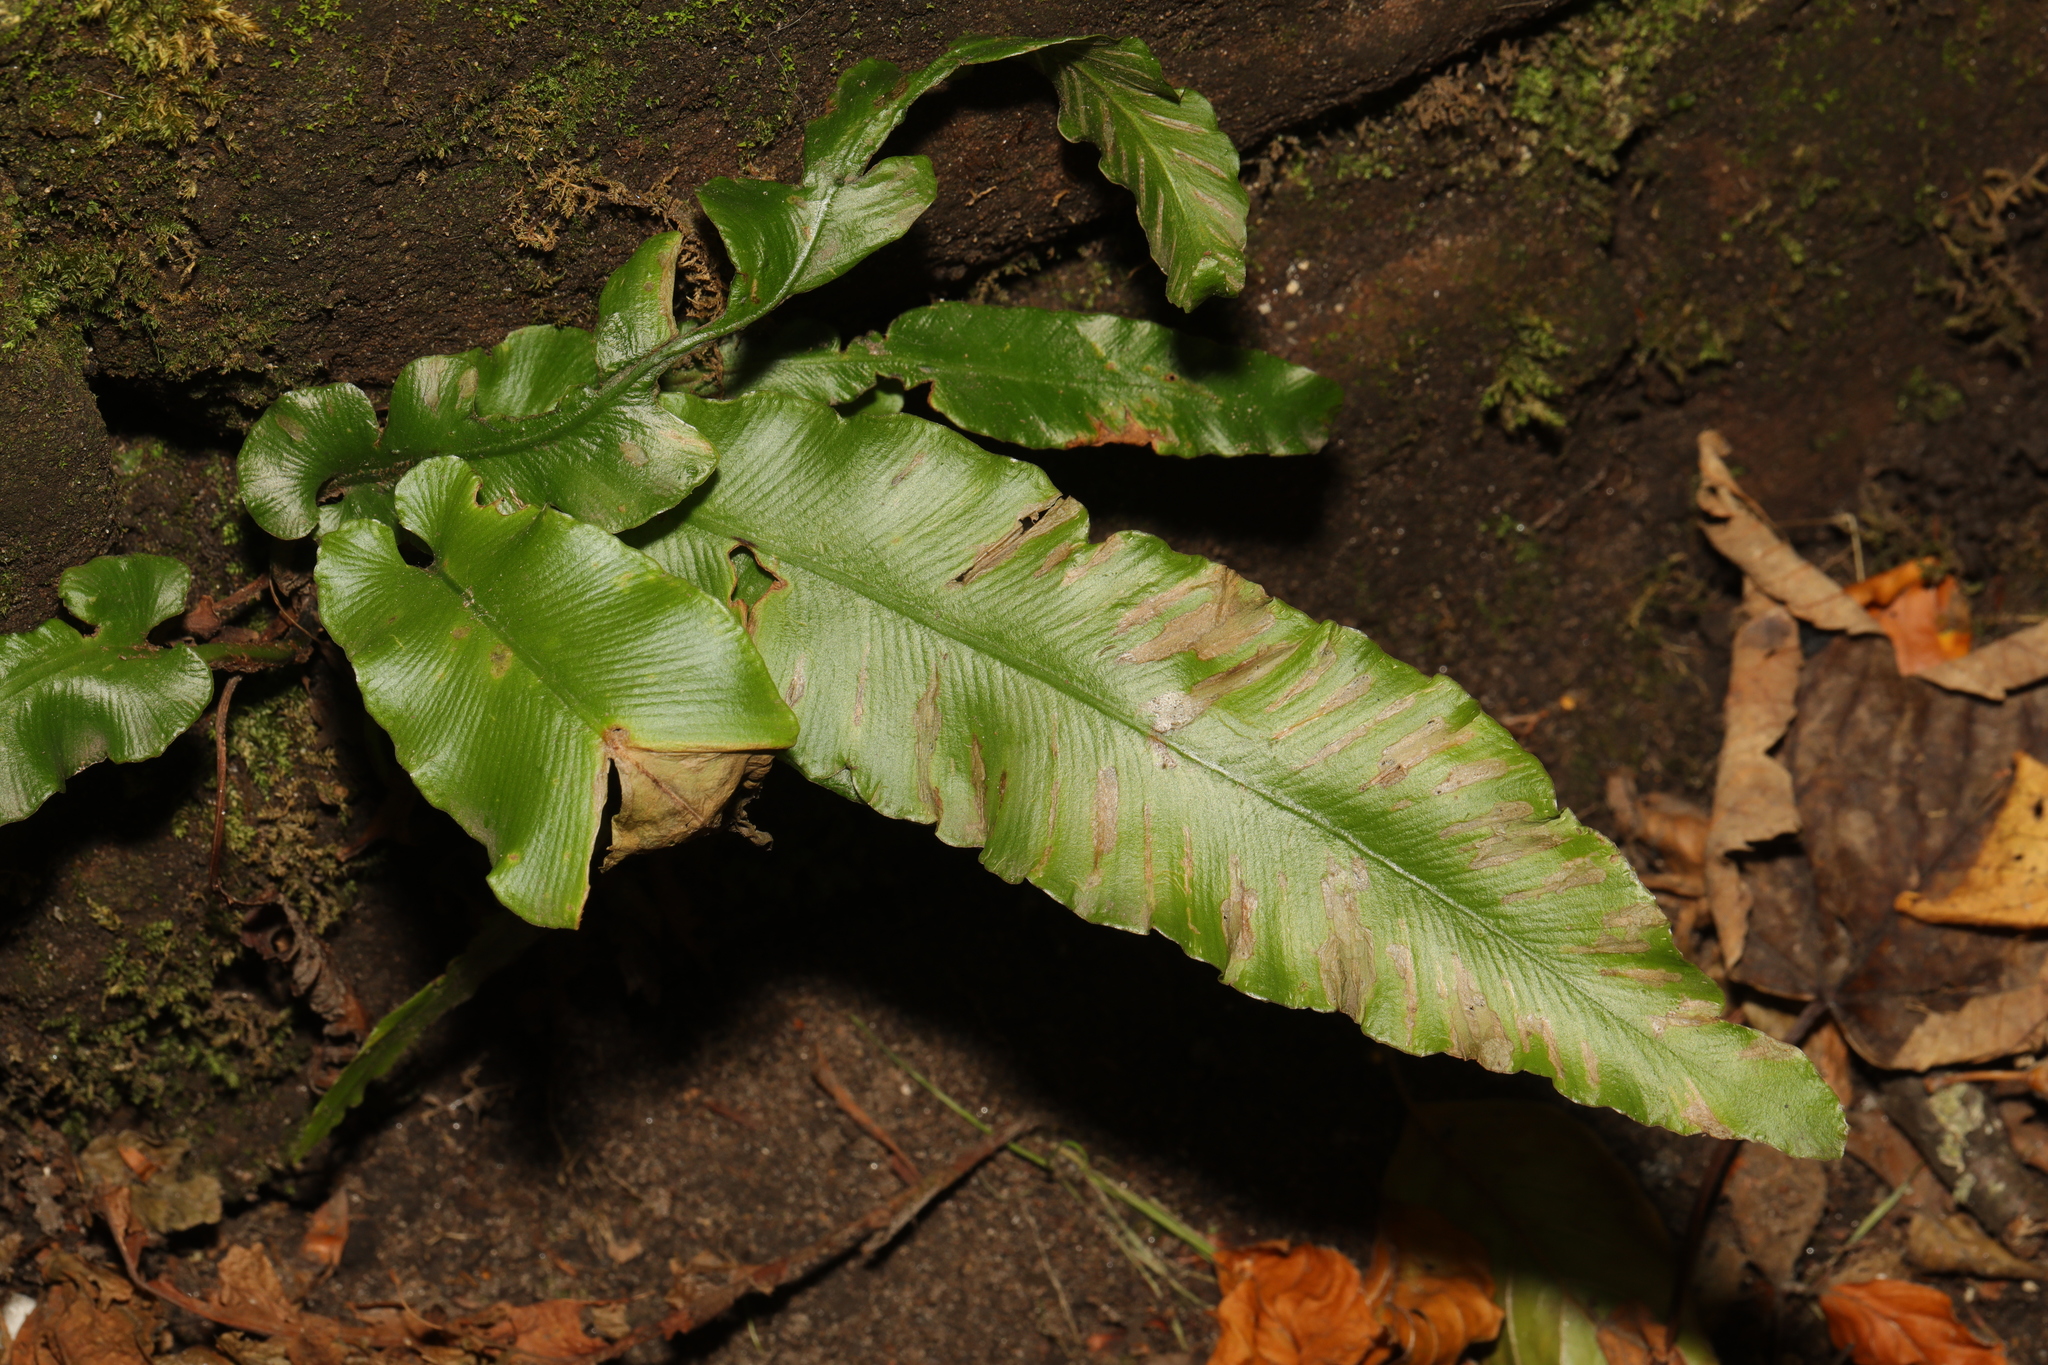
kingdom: Plantae
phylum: Tracheophyta
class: Polypodiopsida
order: Polypodiales
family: Aspleniaceae
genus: Asplenium
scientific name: Asplenium scolopendrium
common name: Hart's-tongue fern
